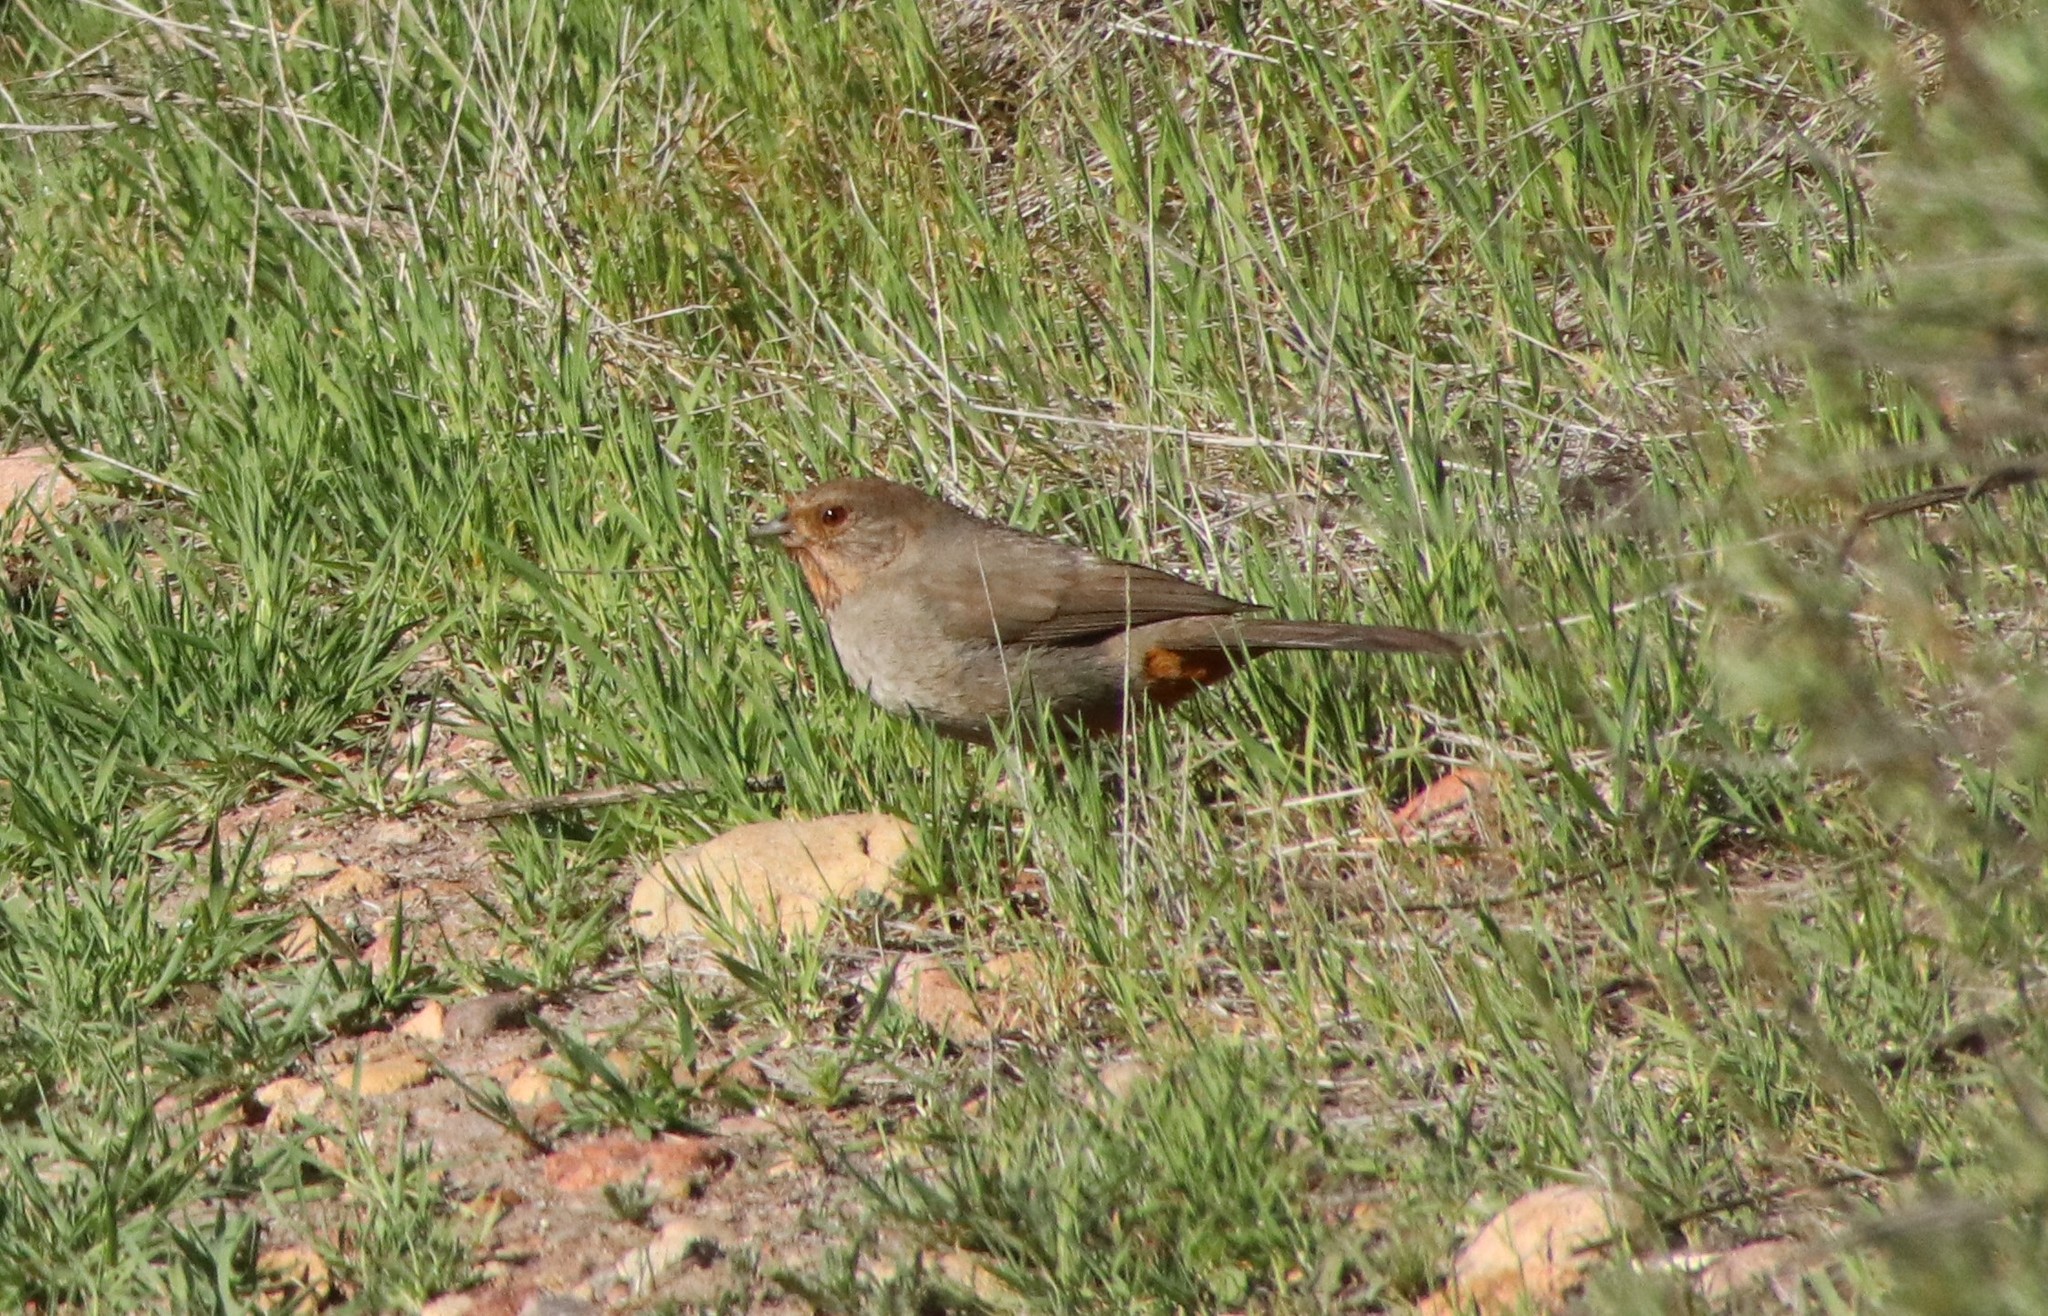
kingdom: Animalia
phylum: Chordata
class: Aves
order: Passeriformes
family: Passerellidae
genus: Melozone
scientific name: Melozone crissalis
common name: California towhee
